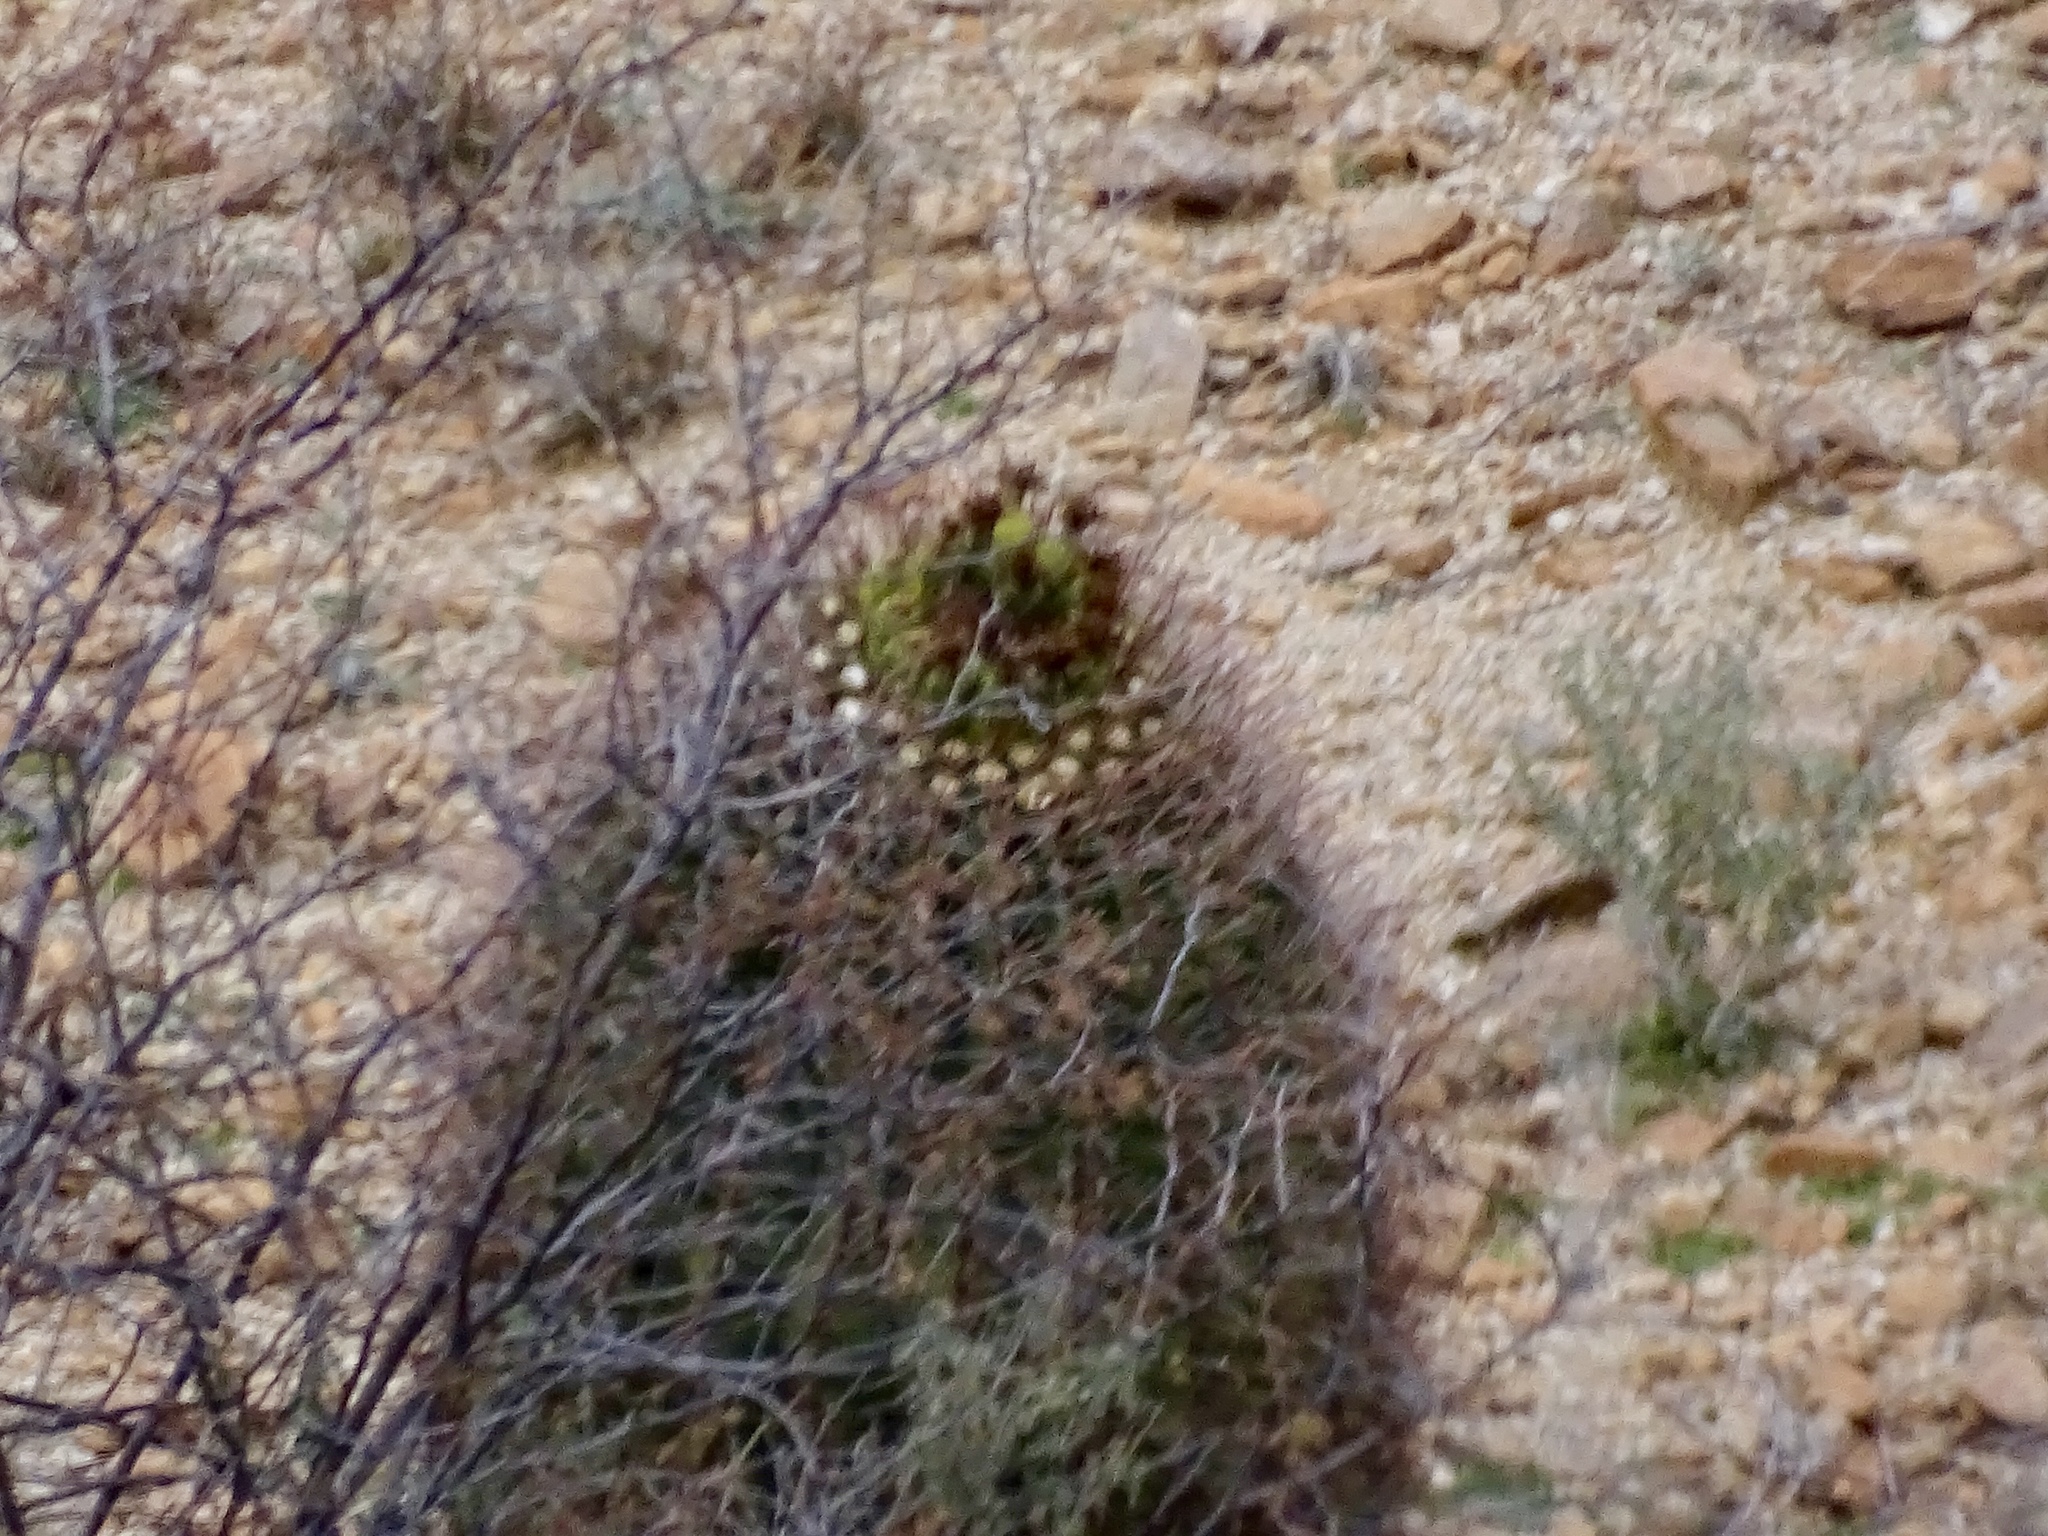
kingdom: Plantae
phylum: Tracheophyta
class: Magnoliopsida
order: Caryophyllales
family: Cactaceae
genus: Ferocactus
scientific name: Ferocactus wislizeni
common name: Candy barrel cactus
